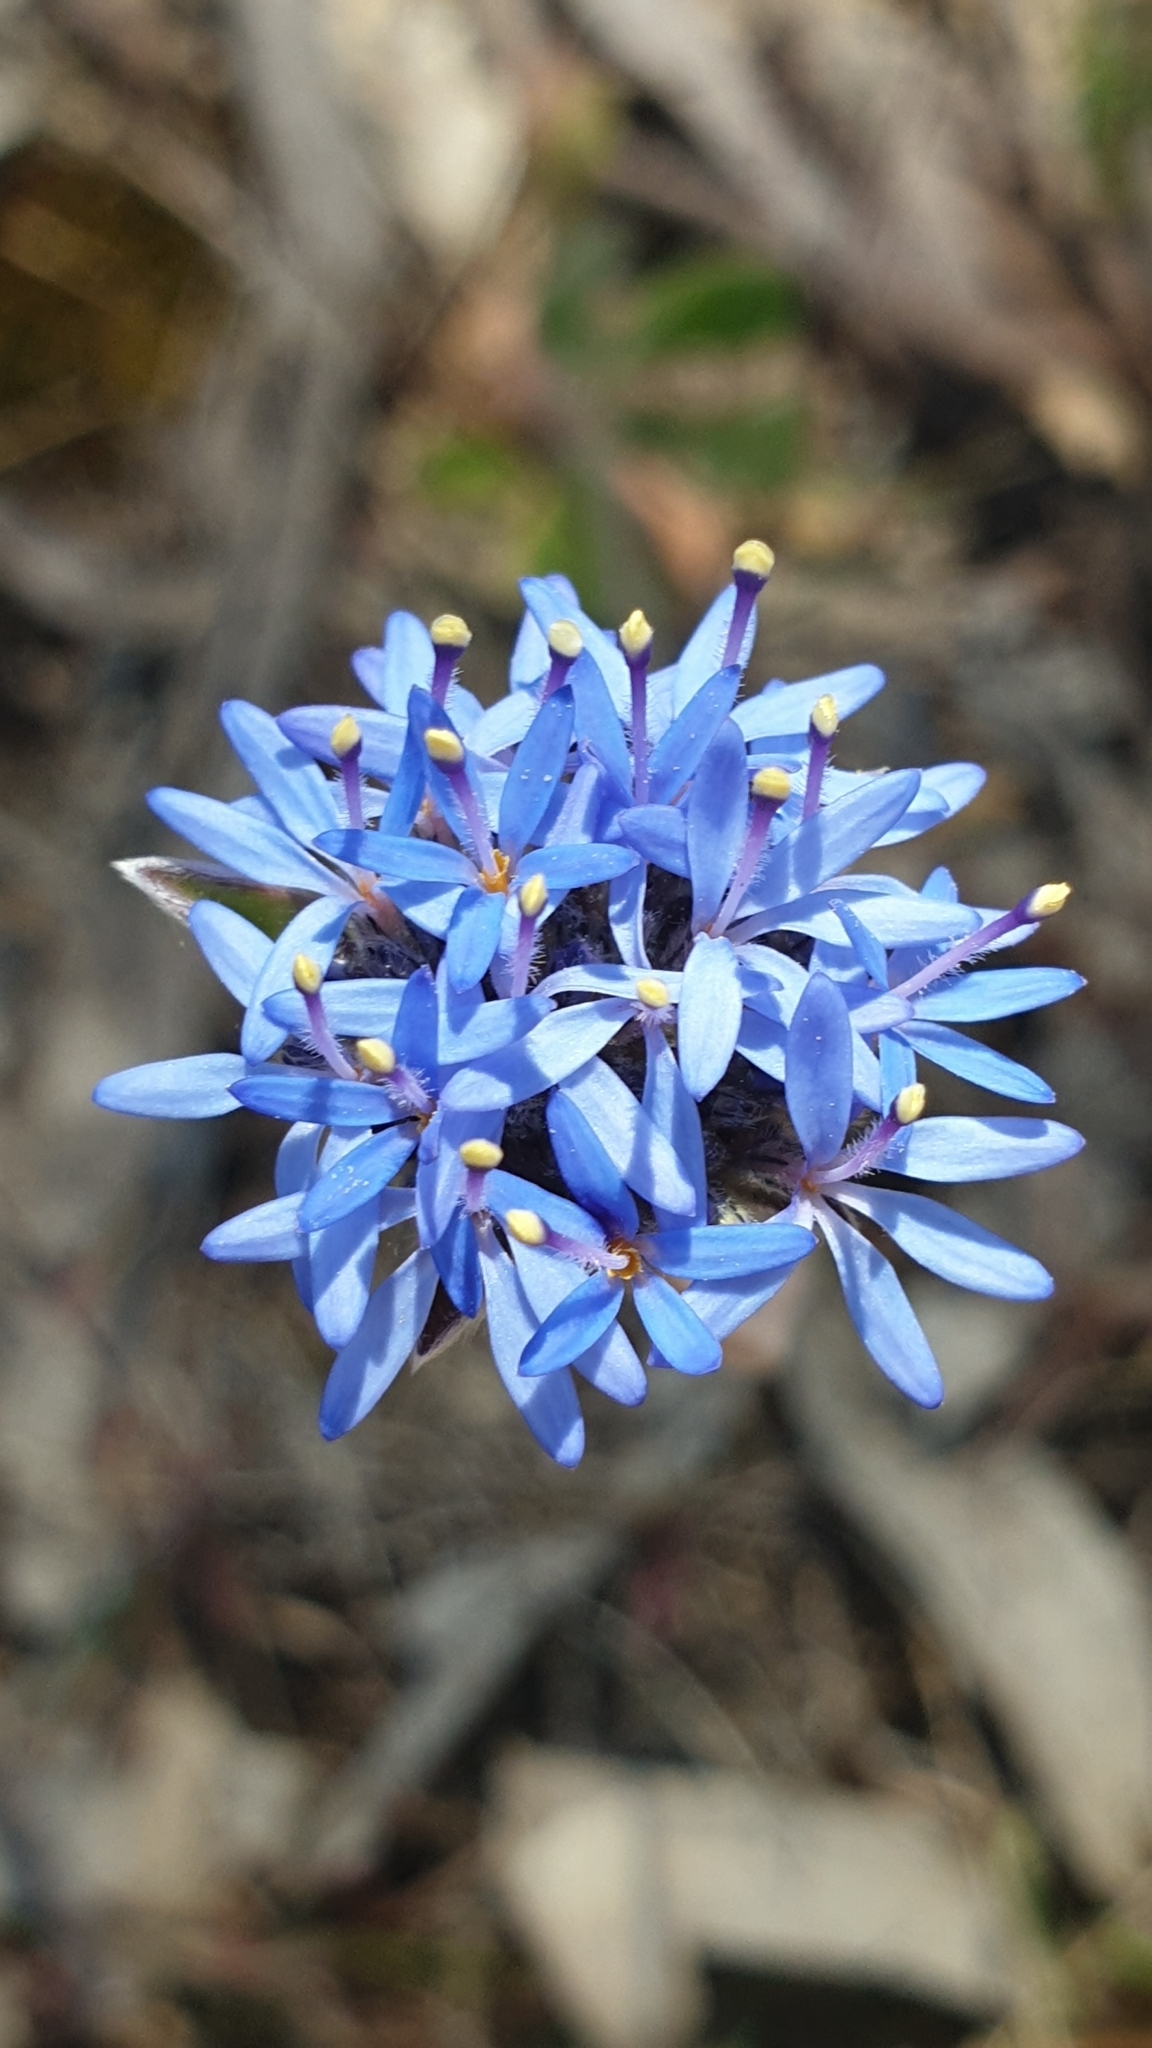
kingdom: Plantae
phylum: Tracheophyta
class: Magnoliopsida
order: Asterales
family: Goodeniaceae
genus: Brunonia
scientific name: Brunonia australis
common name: Blue pincushion
